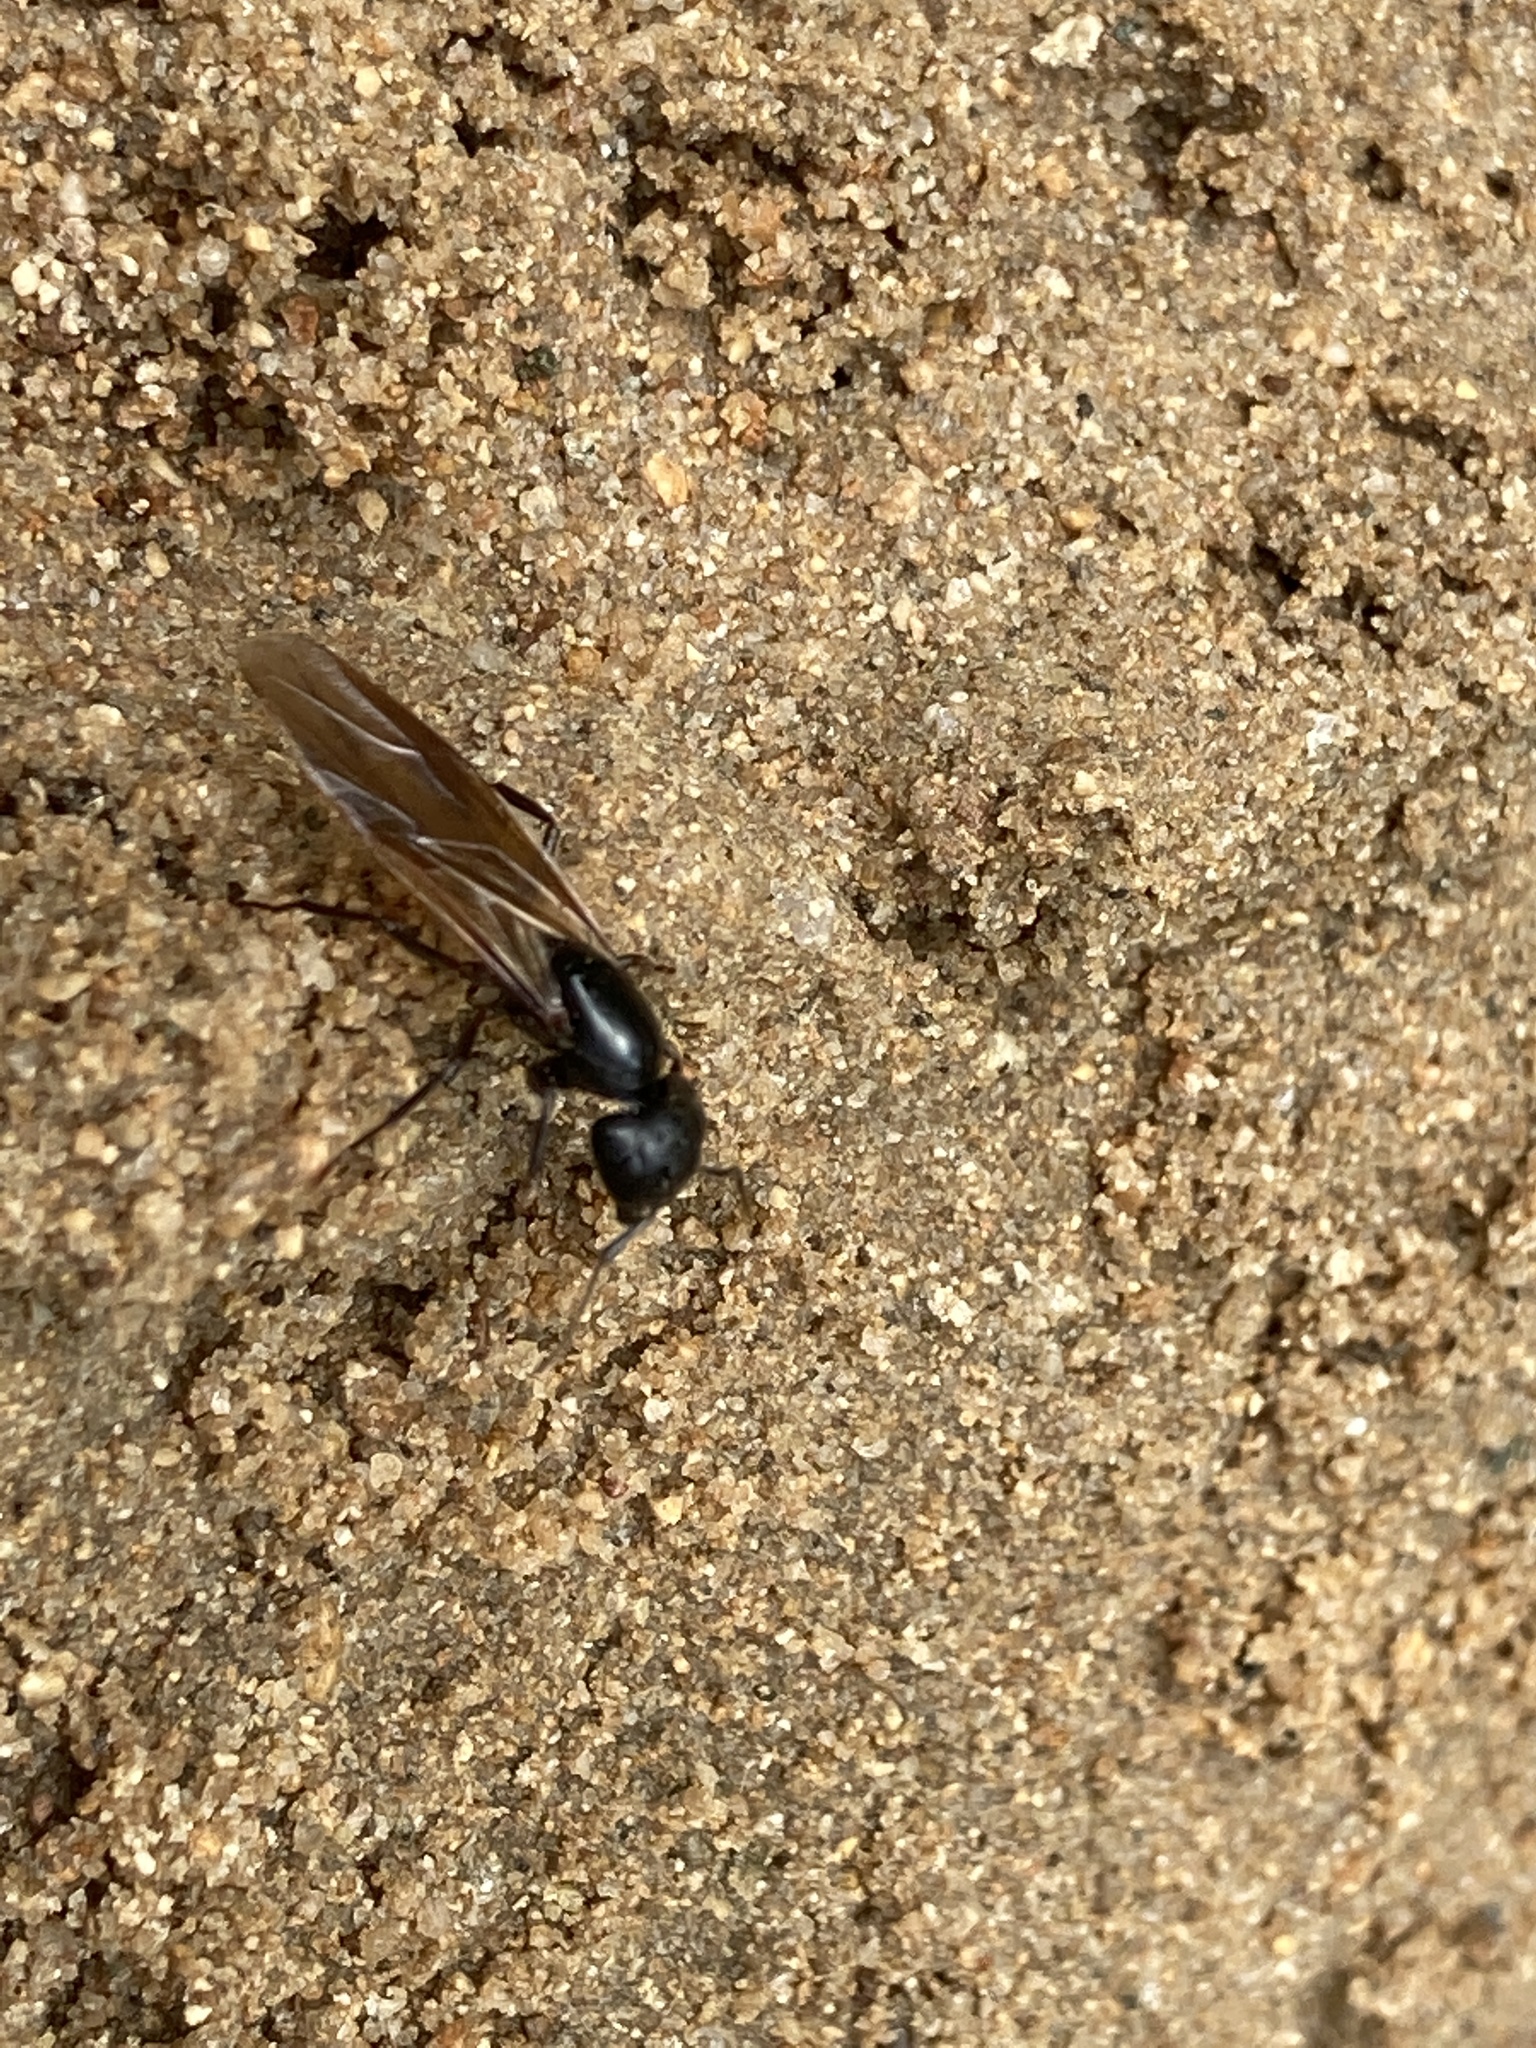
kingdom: Animalia
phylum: Arthropoda
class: Insecta
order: Hymenoptera
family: Formicidae
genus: Camponotus
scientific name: Camponotus pennsylvanicus
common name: Black carpenter ant
